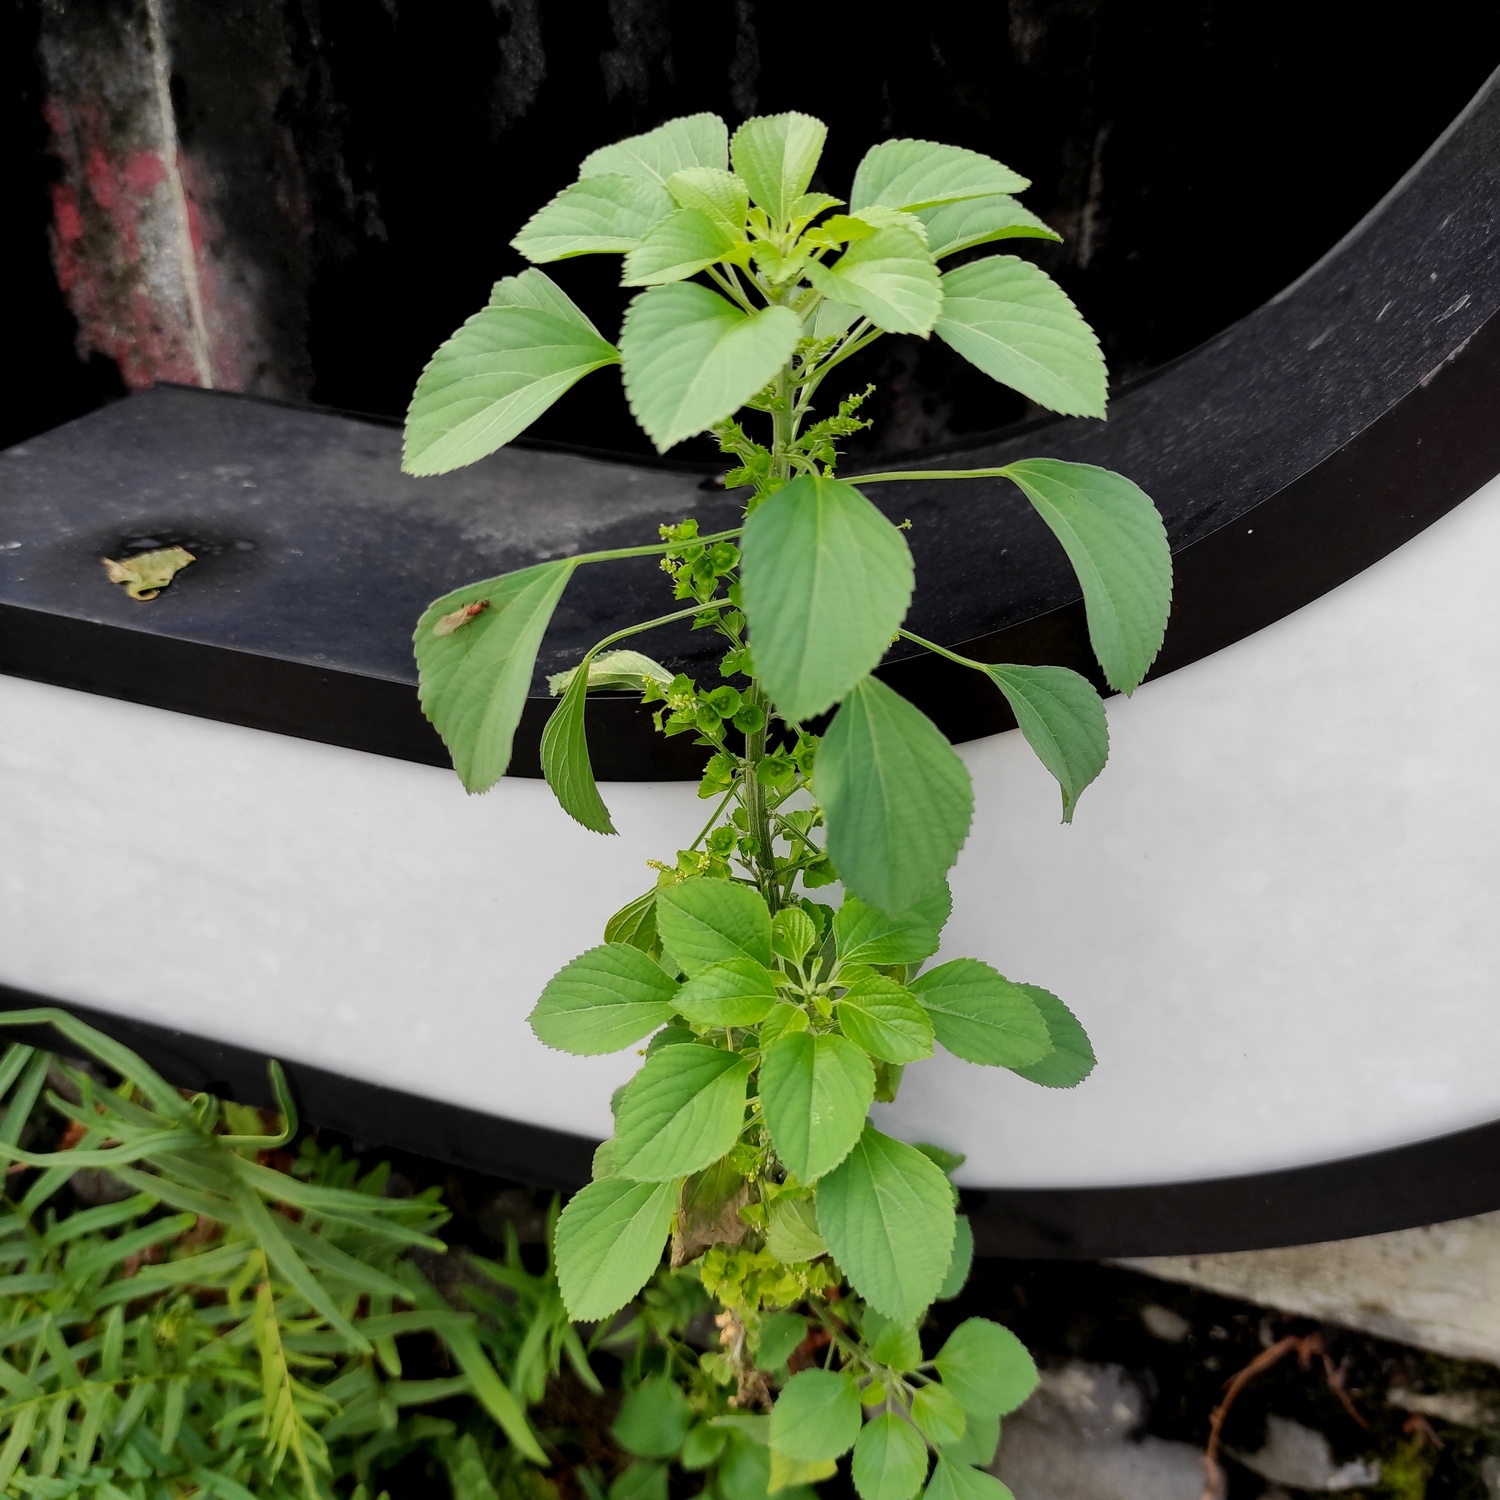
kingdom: Plantae
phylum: Tracheophyta
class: Magnoliopsida
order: Malpighiales
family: Euphorbiaceae
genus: Acalypha
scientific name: Acalypha indica
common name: Indian acalypha
